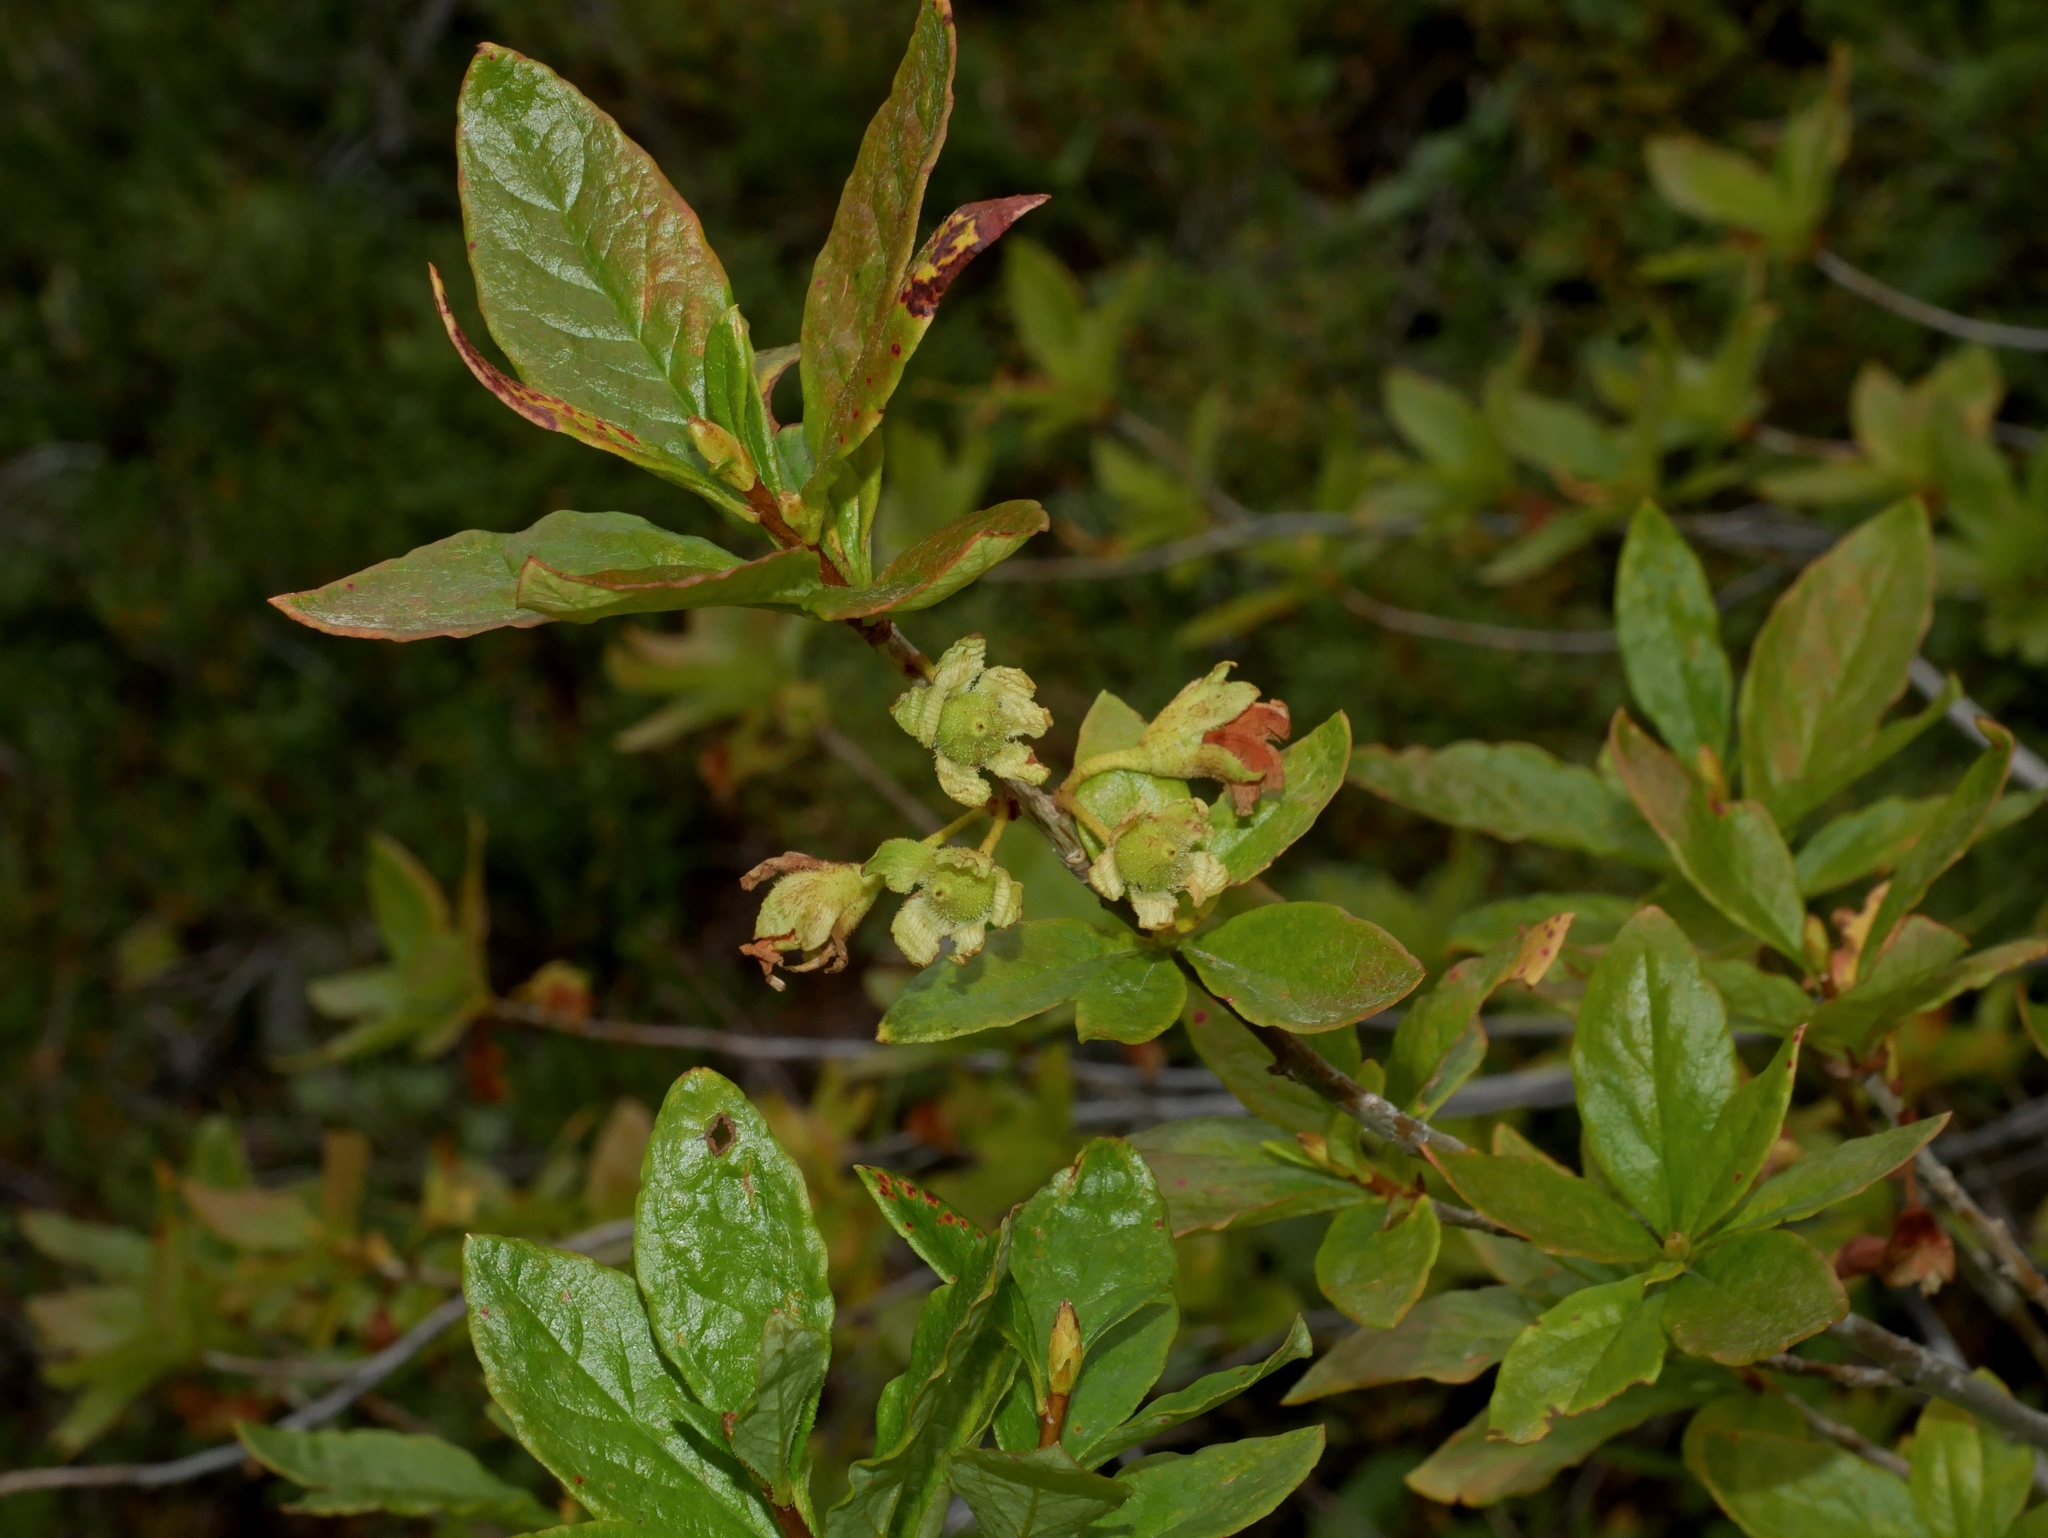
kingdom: Plantae
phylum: Tracheophyta
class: Magnoliopsida
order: Ericales
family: Ericaceae
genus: Rhododendron
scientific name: Rhododendron albiflorum
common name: White rhododendron
